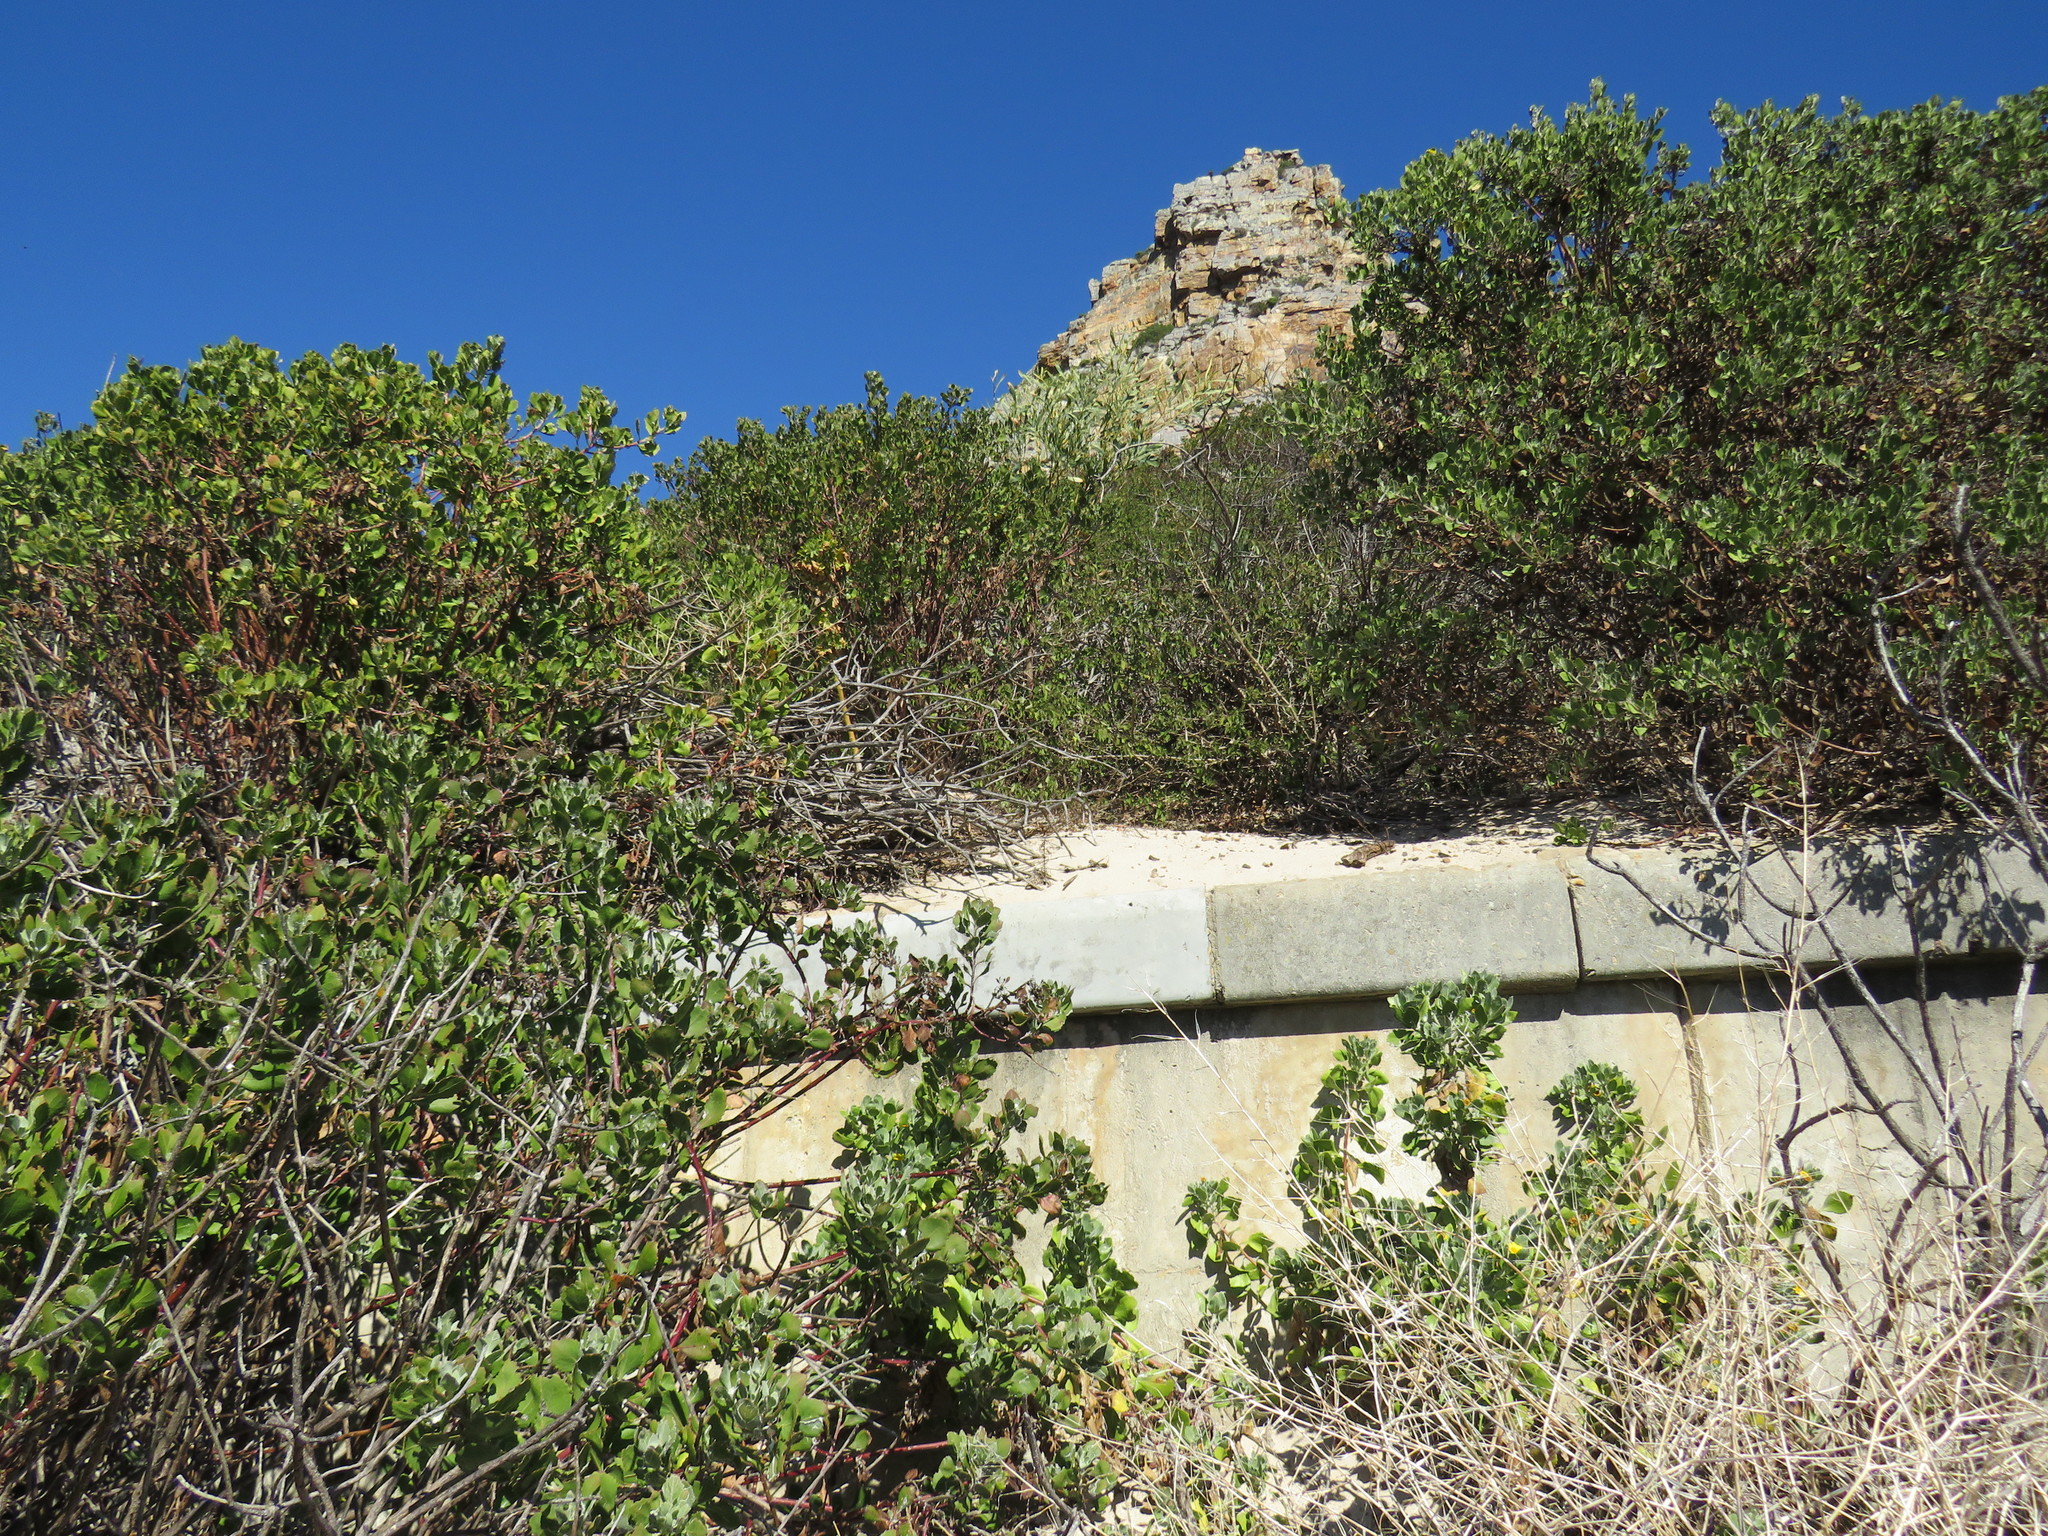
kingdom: Animalia
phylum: Chordata
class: Aves
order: Galliformes
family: Phasianidae
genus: Pternistis
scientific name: Pternistis capensis
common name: Cape spurfowl
